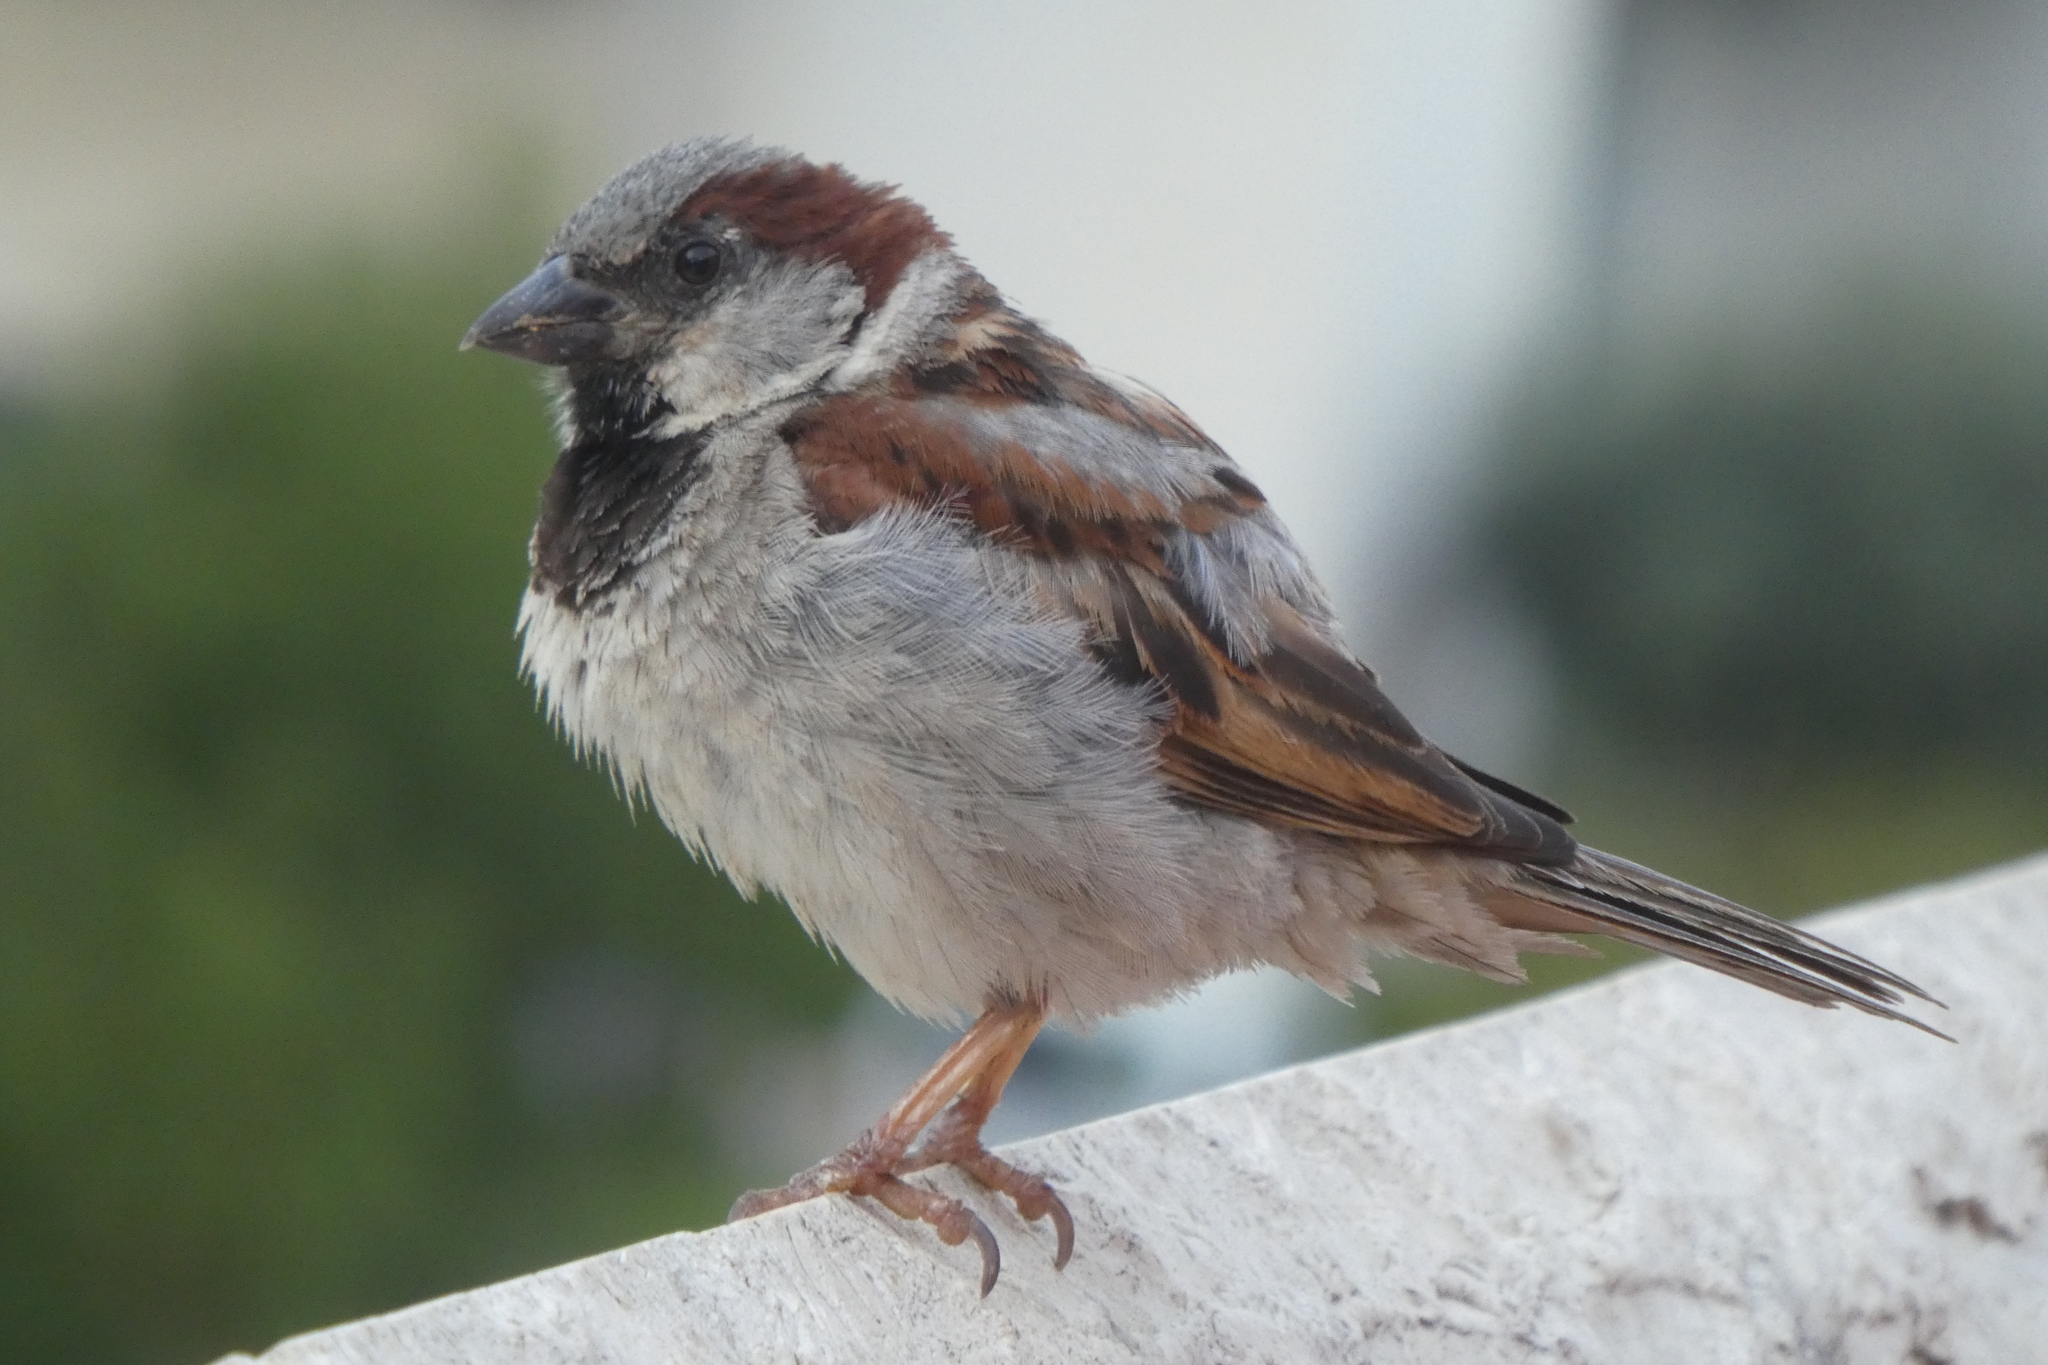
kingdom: Animalia
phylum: Chordata
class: Aves
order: Passeriformes
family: Passeridae
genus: Passer
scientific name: Passer domesticus
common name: House sparrow
